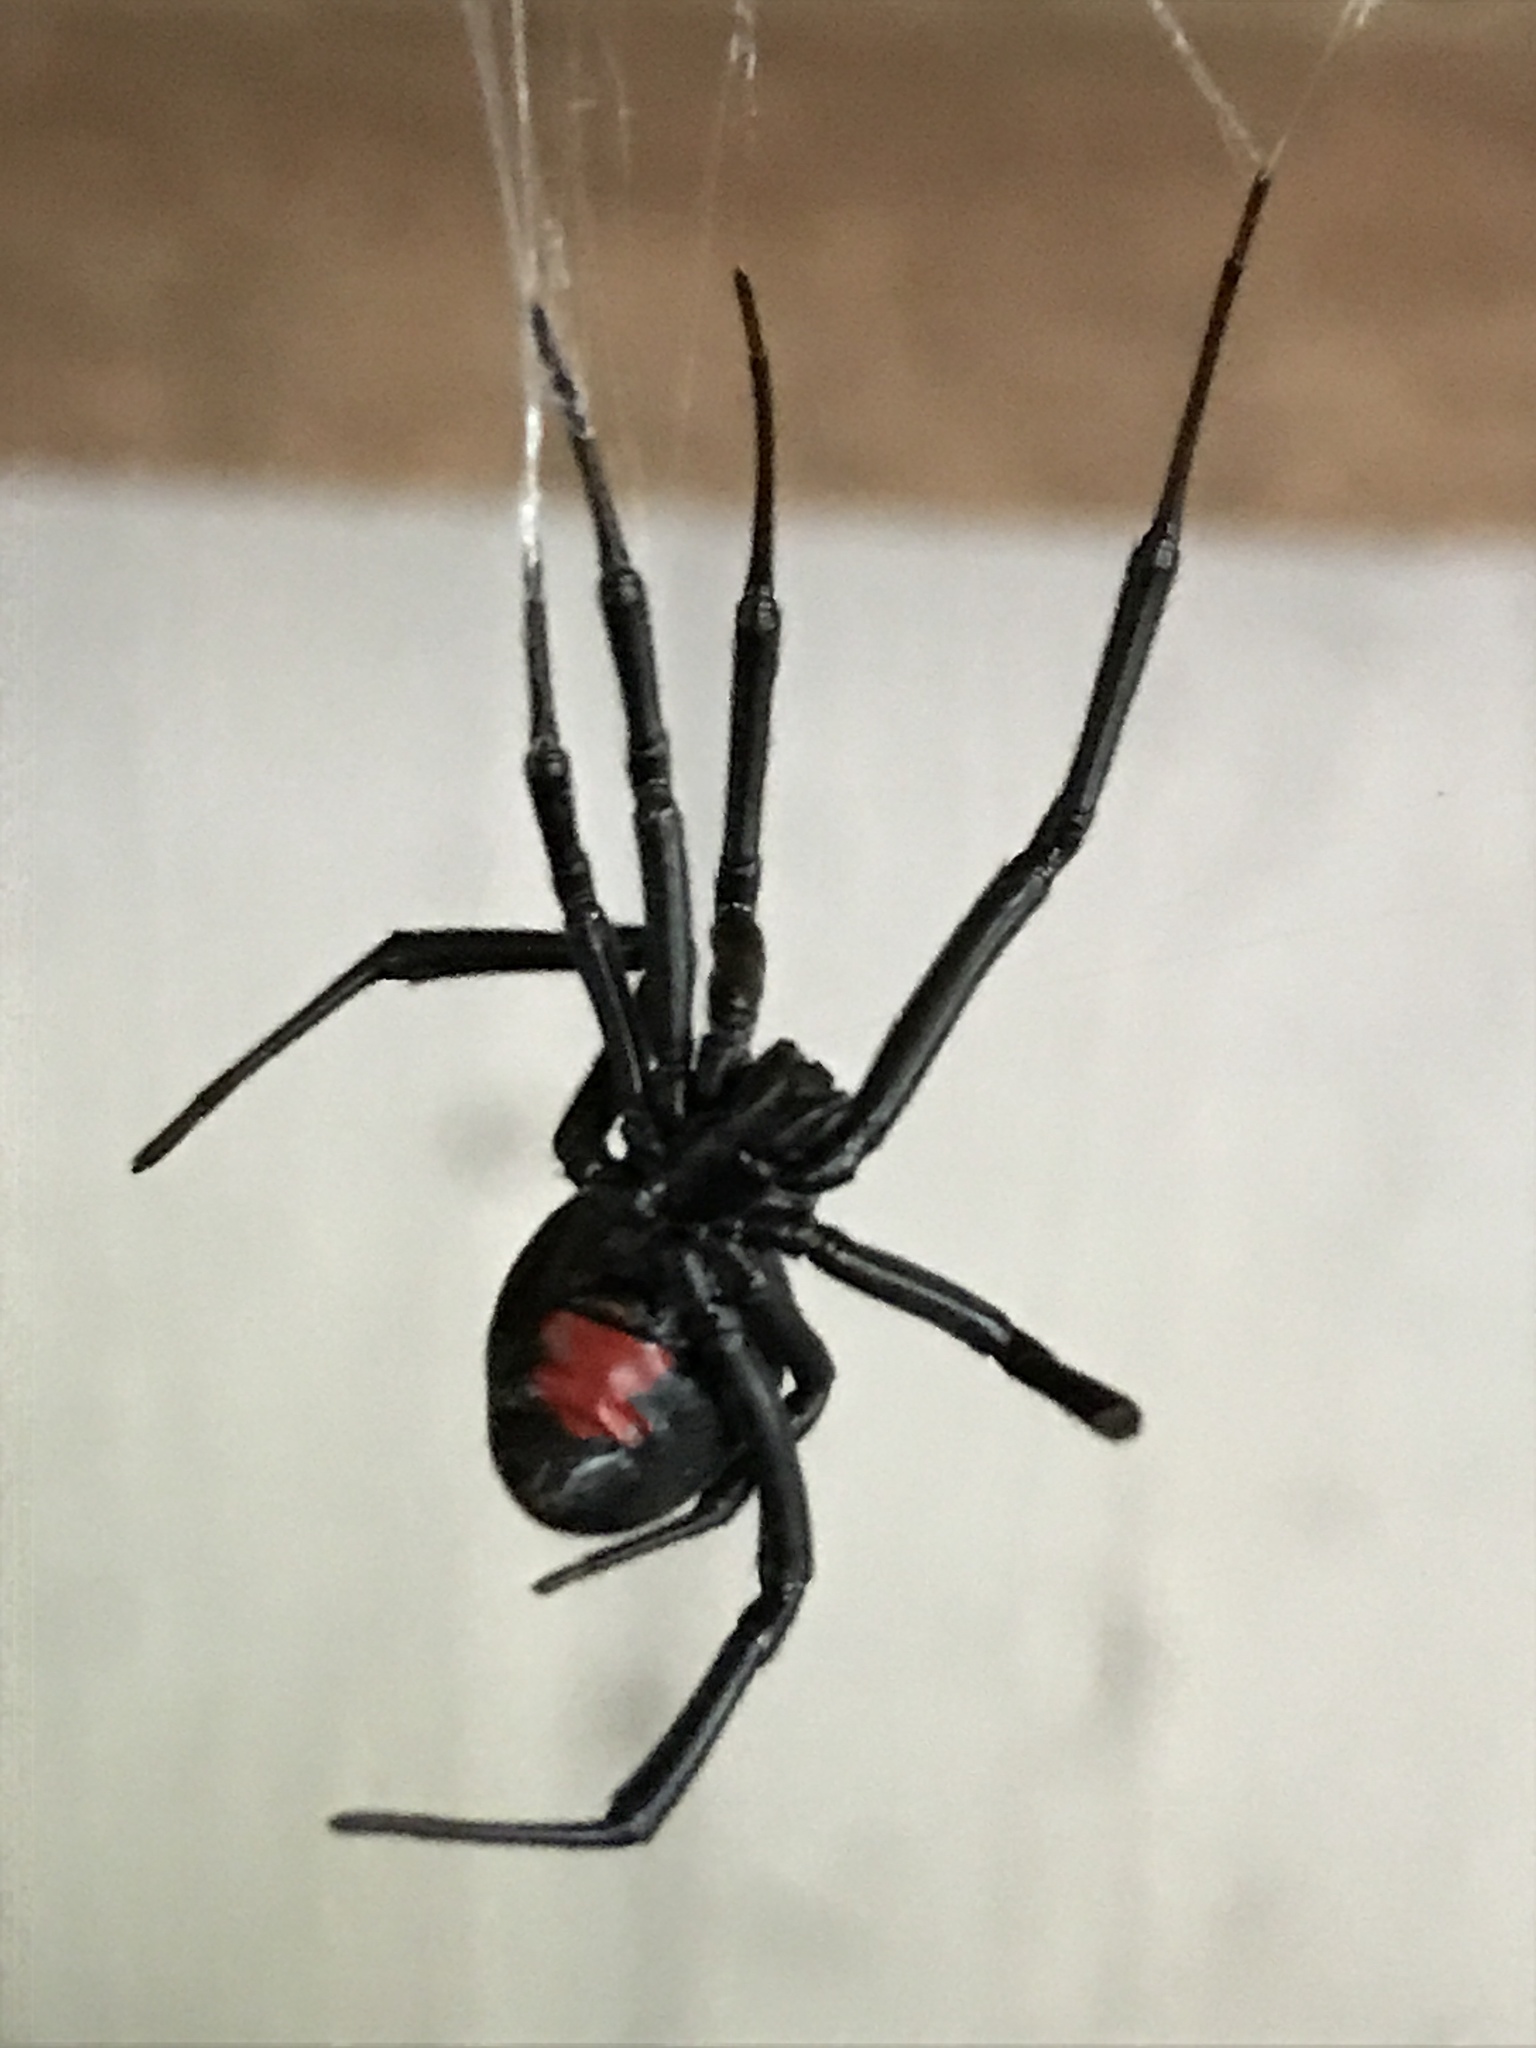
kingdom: Animalia
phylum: Arthropoda
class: Arachnida
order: Araneae
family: Theridiidae
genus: Latrodectus
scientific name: Latrodectus mactans
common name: Cobweb spiders
